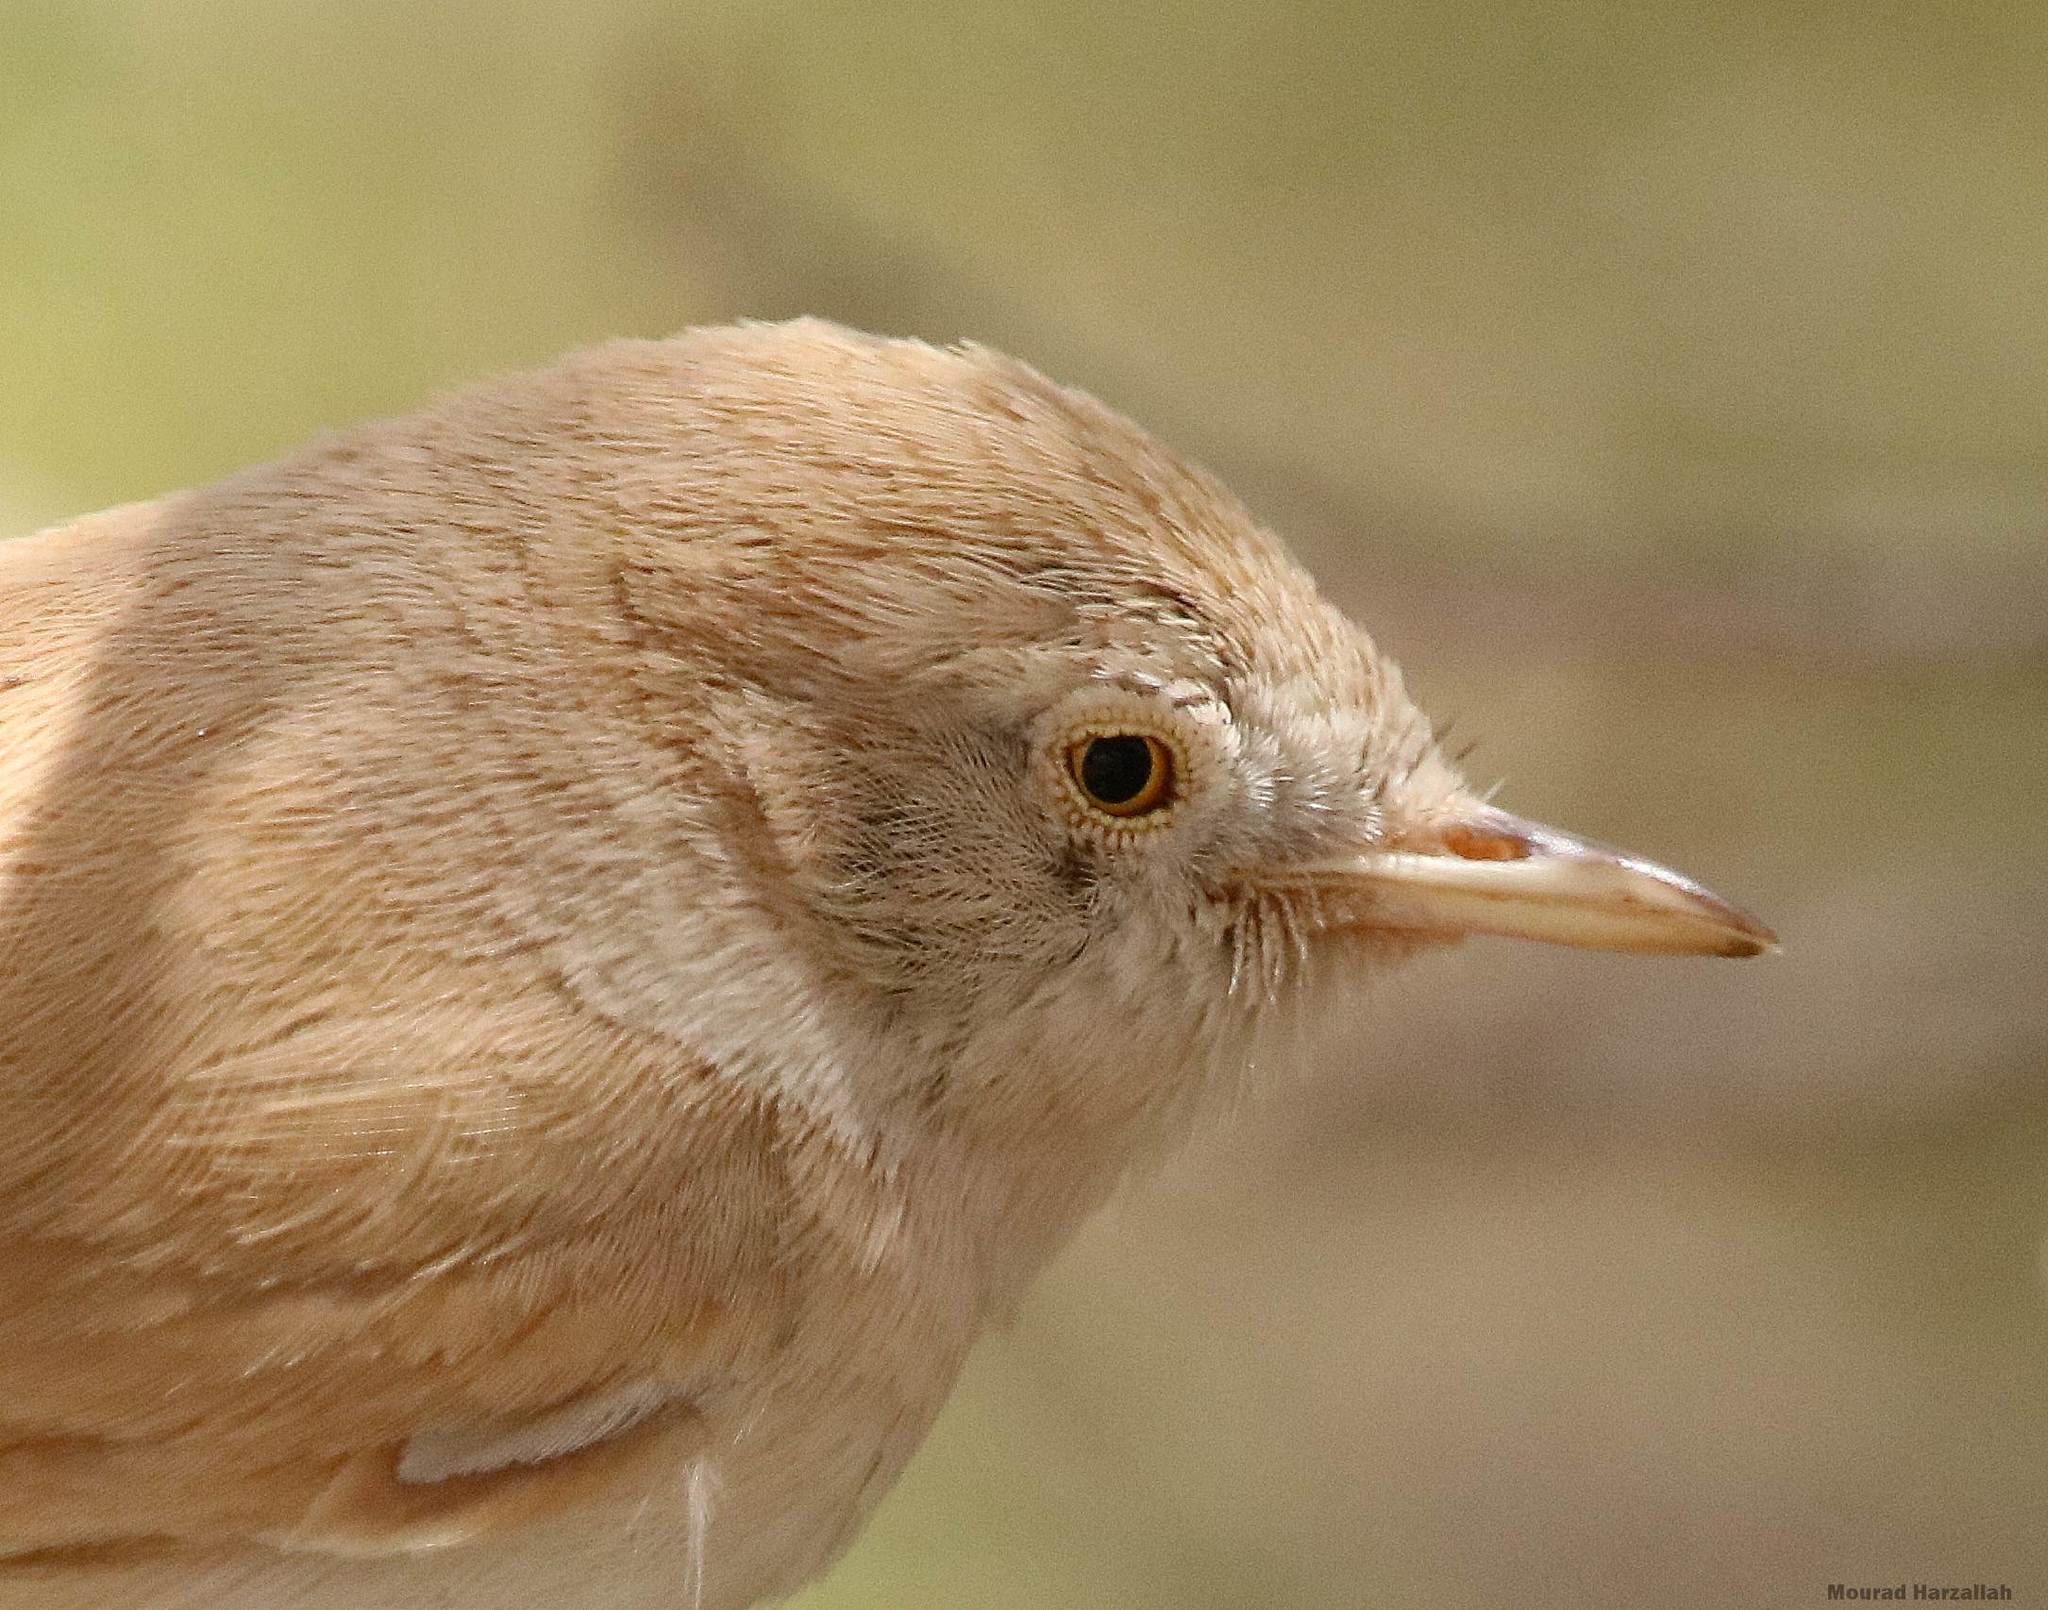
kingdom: Animalia
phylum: Chordata
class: Aves
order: Passeriformes
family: Sylviidae
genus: Sylvia
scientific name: Sylvia deserti
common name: African desert warbler
